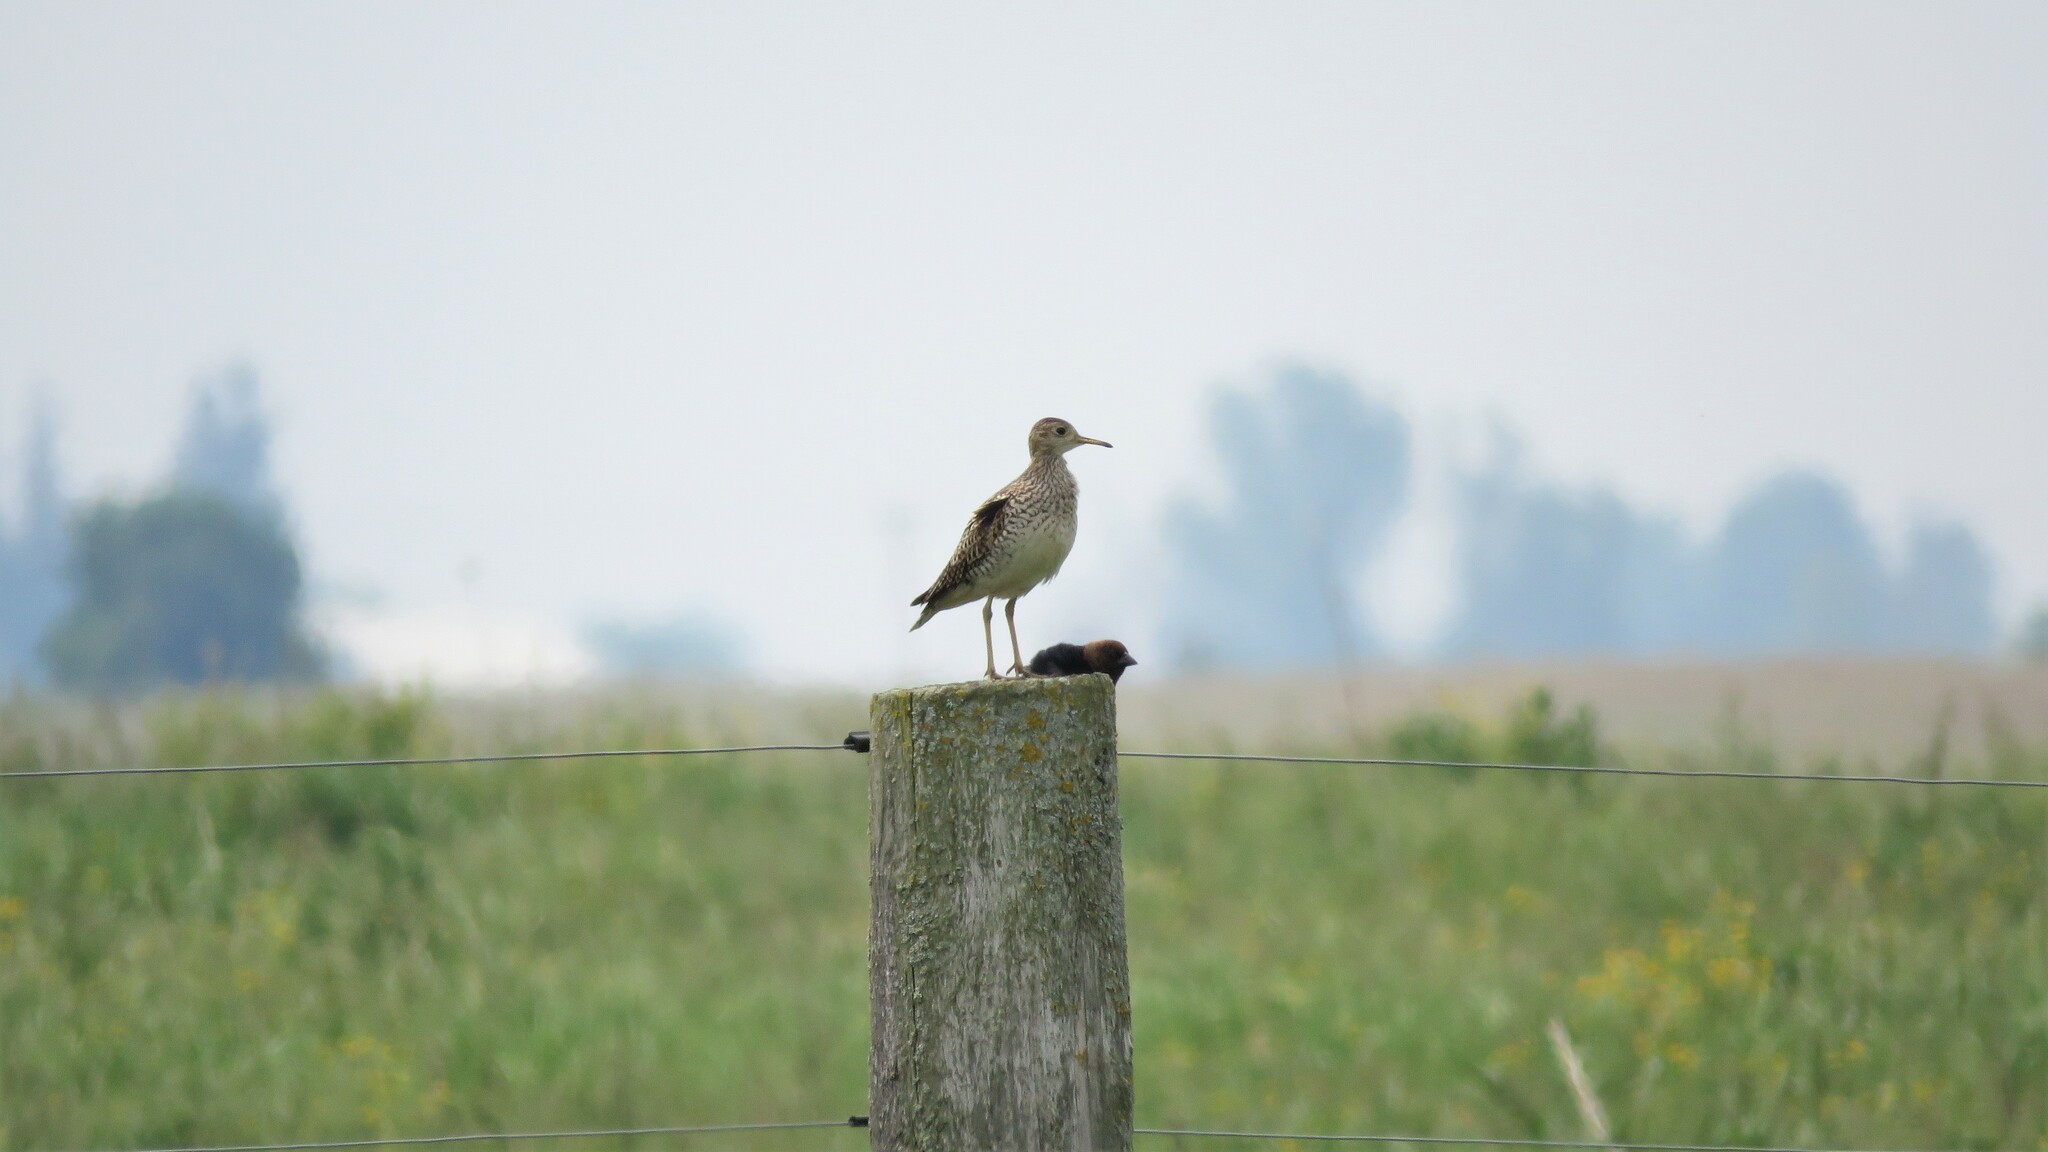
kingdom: Animalia
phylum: Chordata
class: Aves
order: Charadriiformes
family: Scolopacidae
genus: Bartramia
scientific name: Bartramia longicauda
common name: Upland sandpiper
